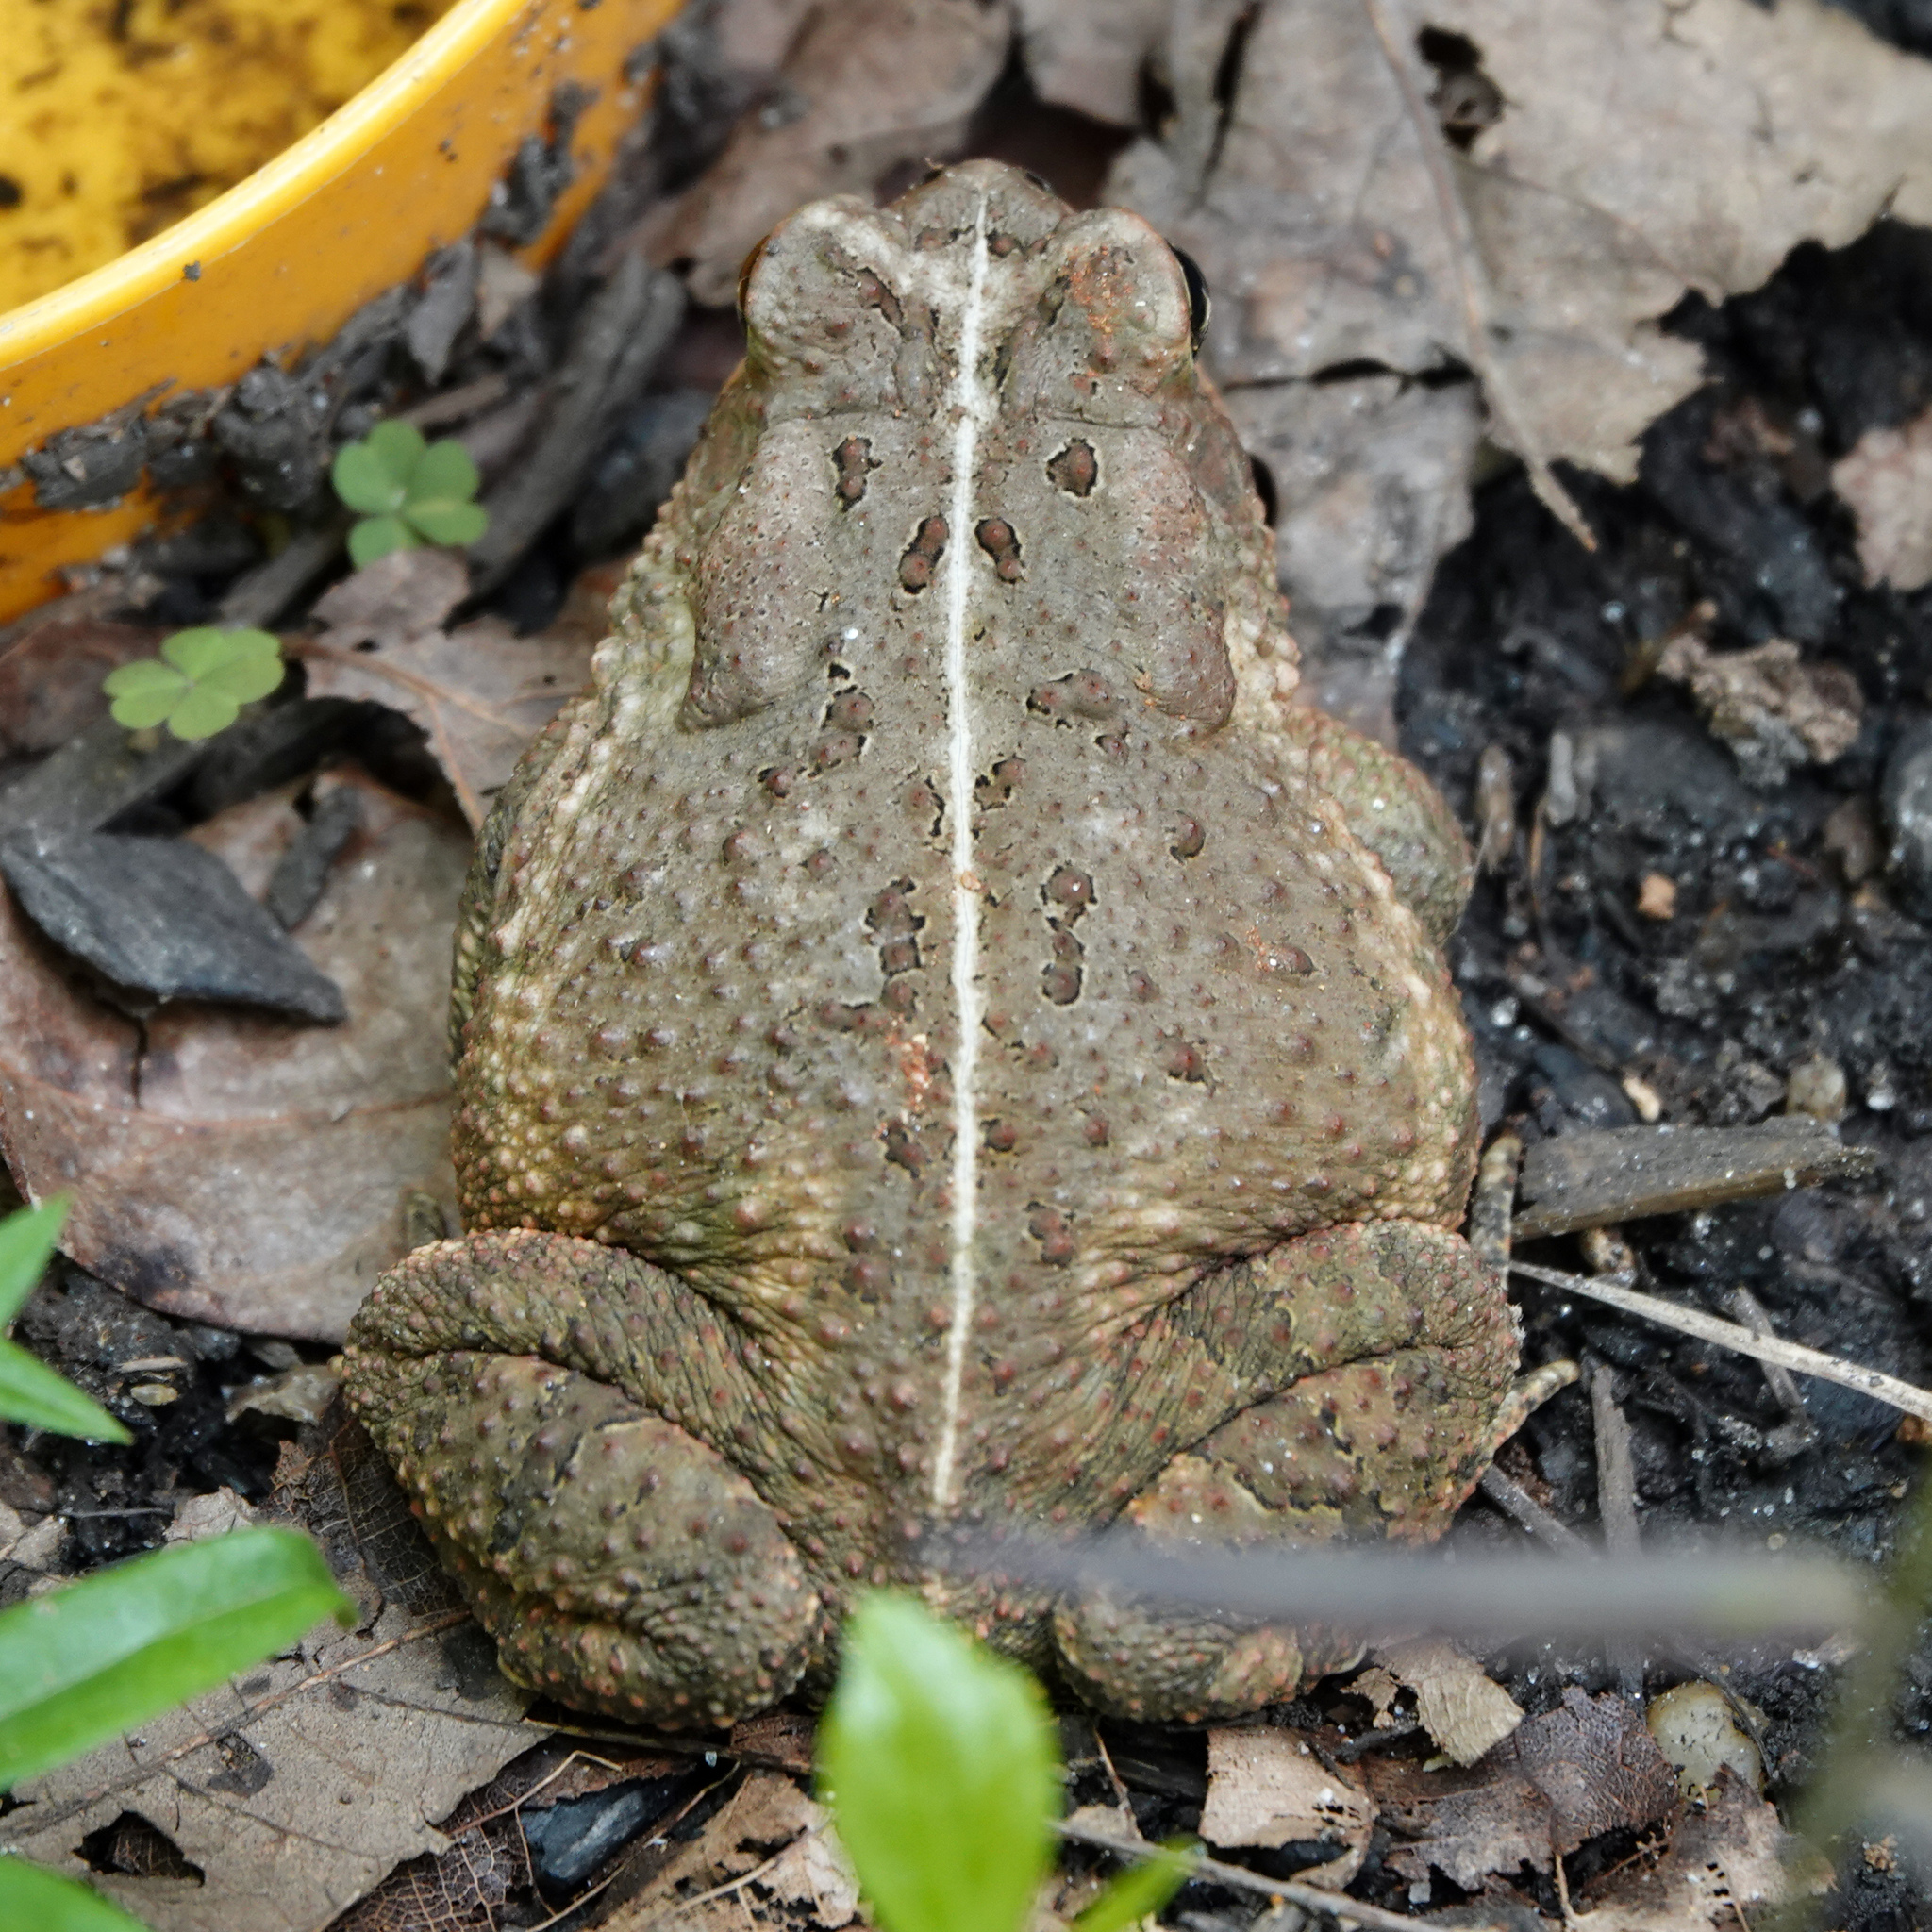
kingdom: Animalia
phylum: Chordata
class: Amphibia
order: Anura
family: Bufonidae
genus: Anaxyrus
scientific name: Anaxyrus fowleri
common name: Fowler's toad
